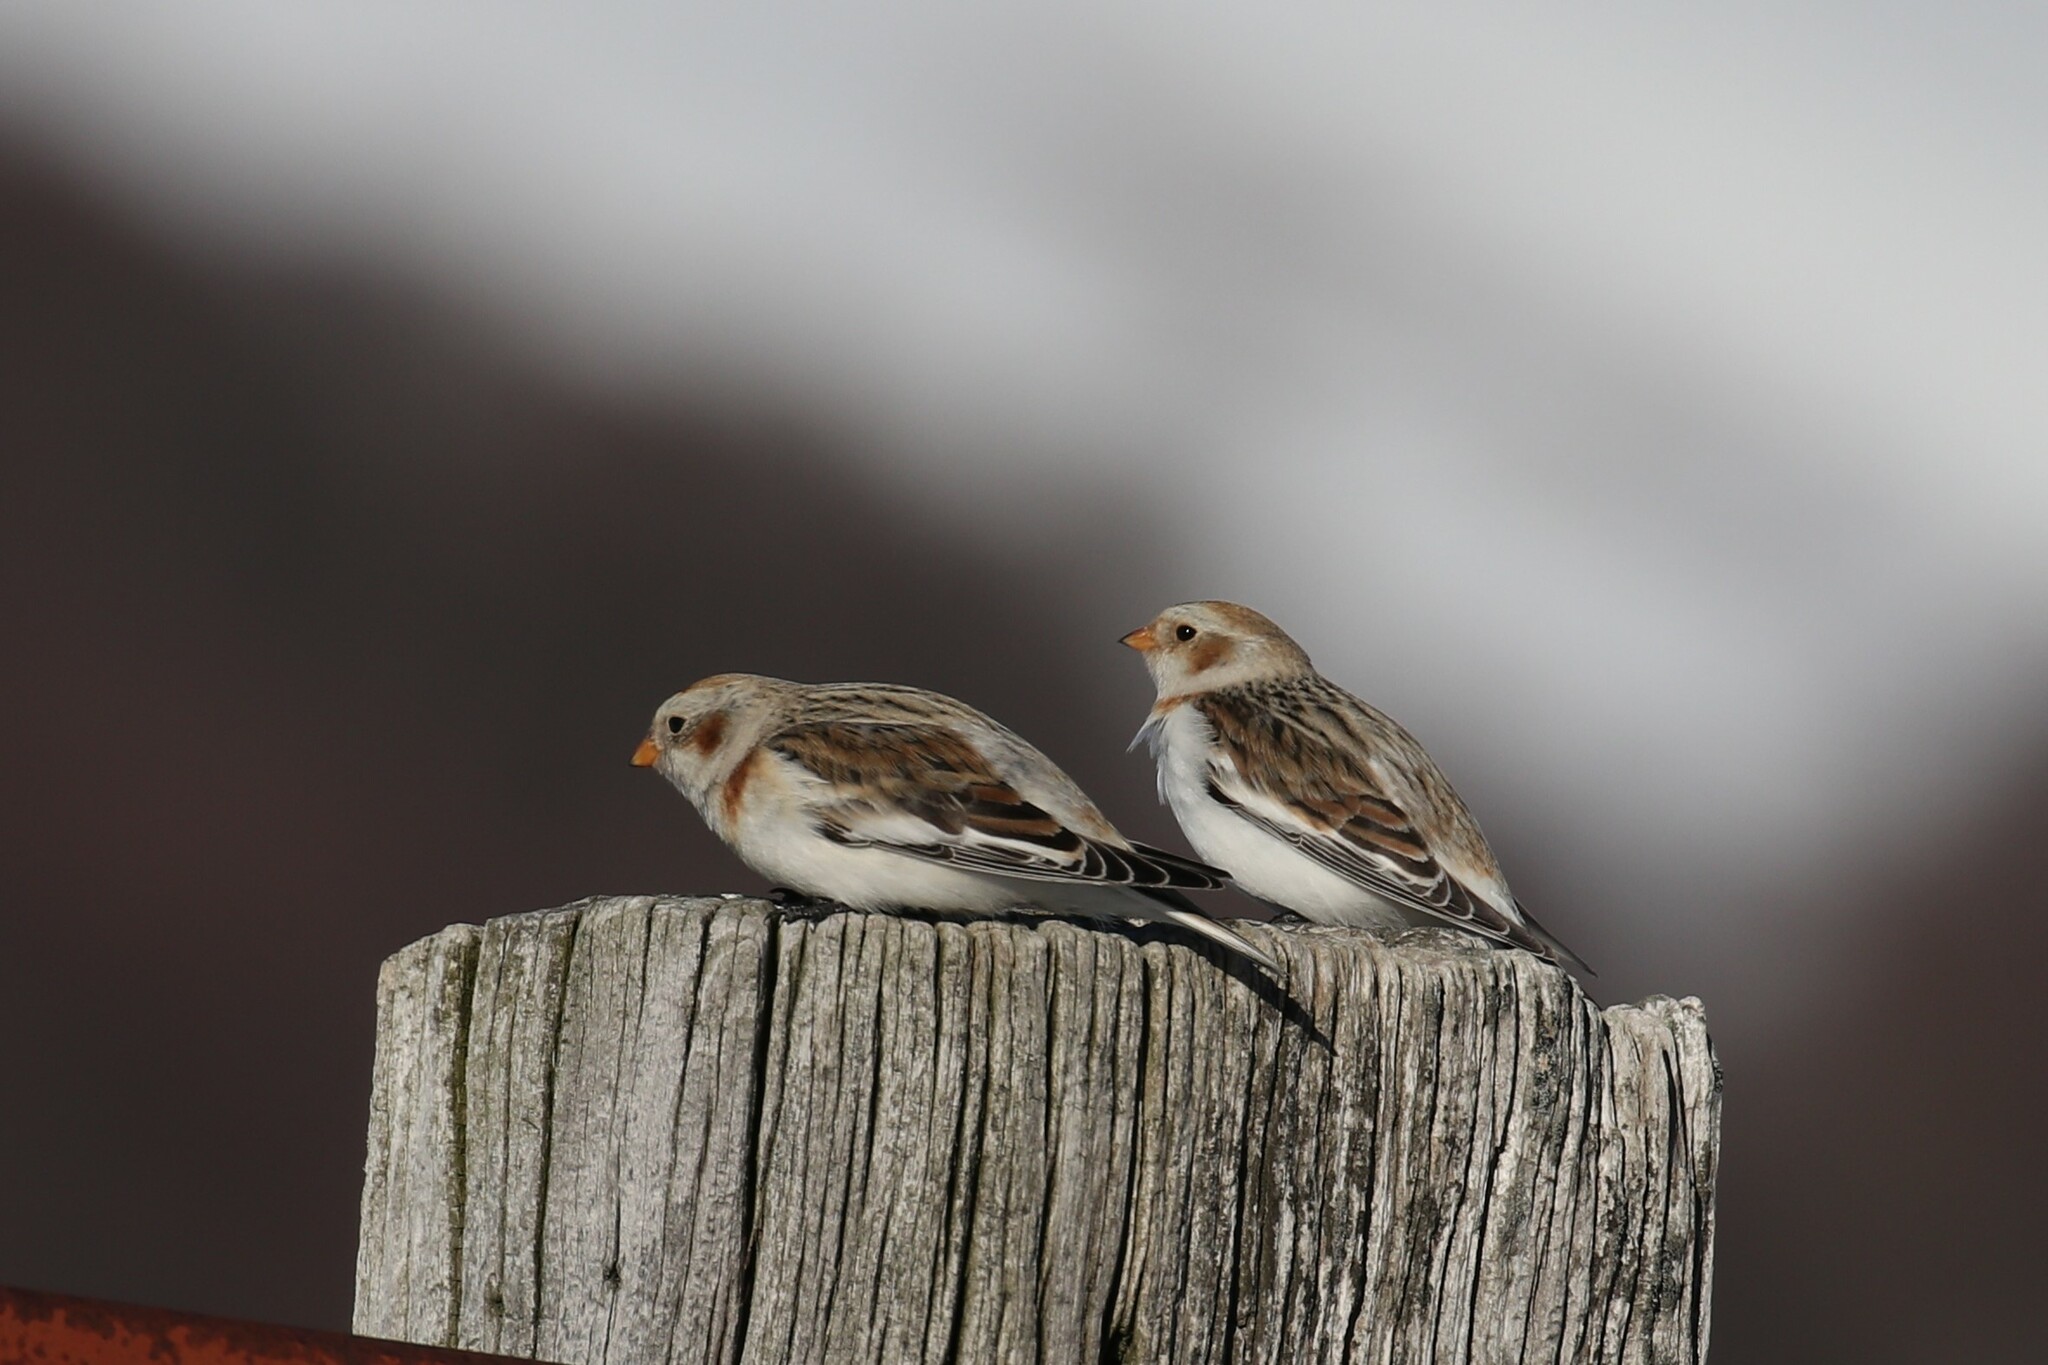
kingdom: Animalia
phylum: Chordata
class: Aves
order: Passeriformes
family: Calcariidae
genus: Plectrophenax
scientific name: Plectrophenax nivalis
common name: Snow bunting
